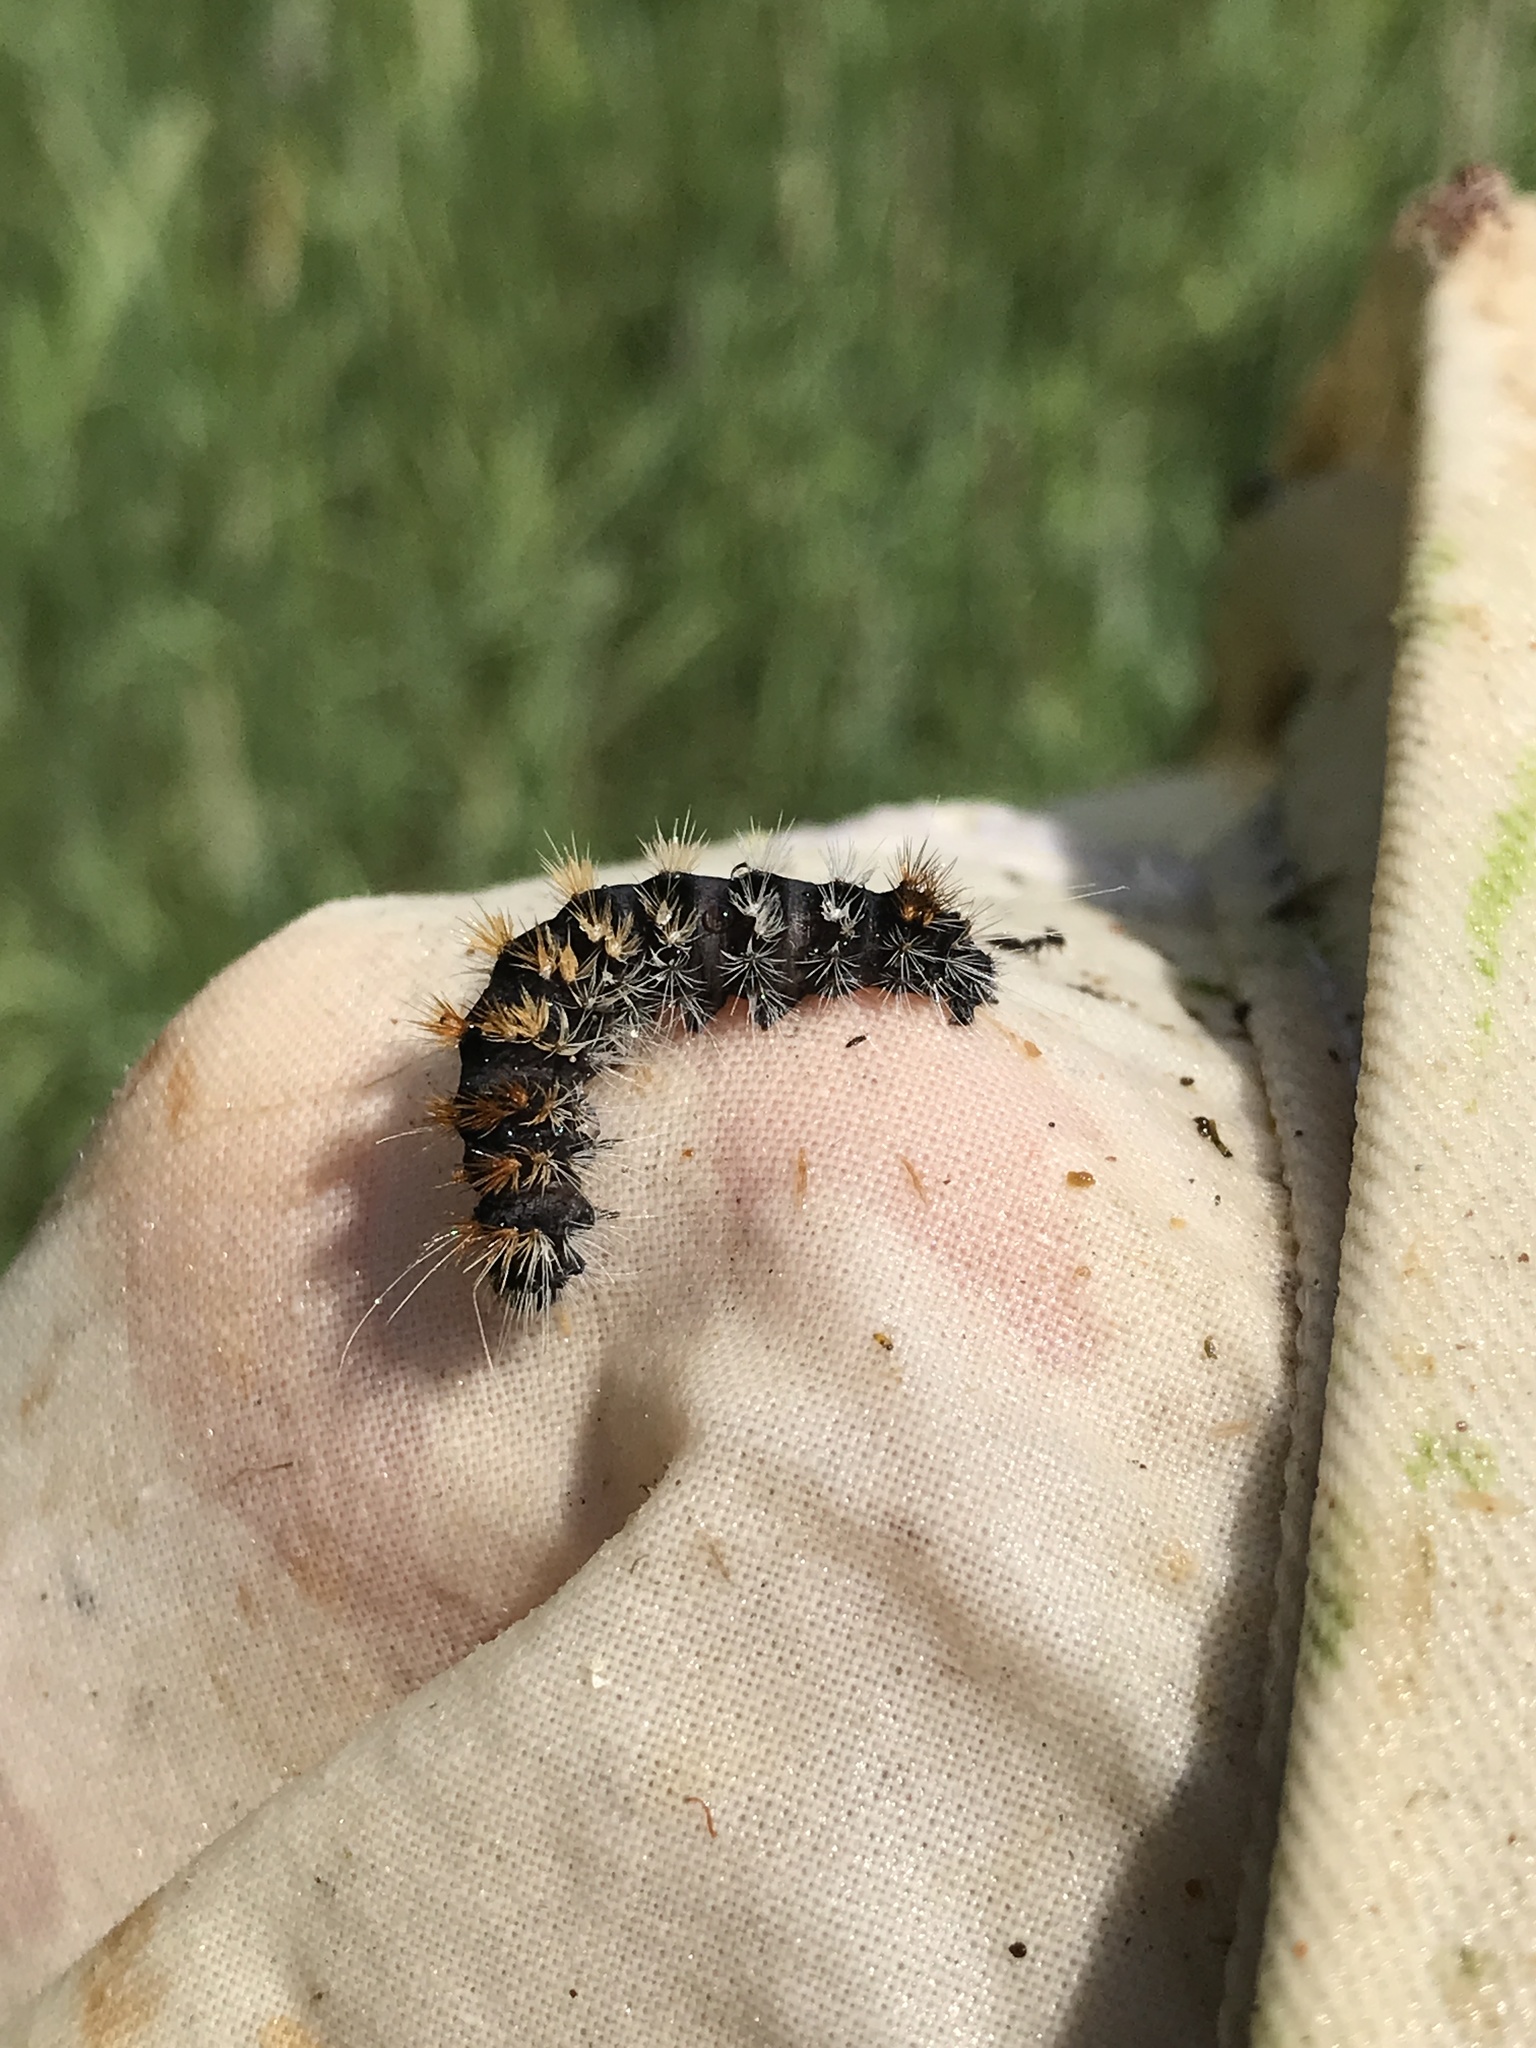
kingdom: Animalia
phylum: Arthropoda
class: Insecta
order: Lepidoptera
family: Noctuidae
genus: Acronicta
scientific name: Acronicta impressa
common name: Impressed dagger
